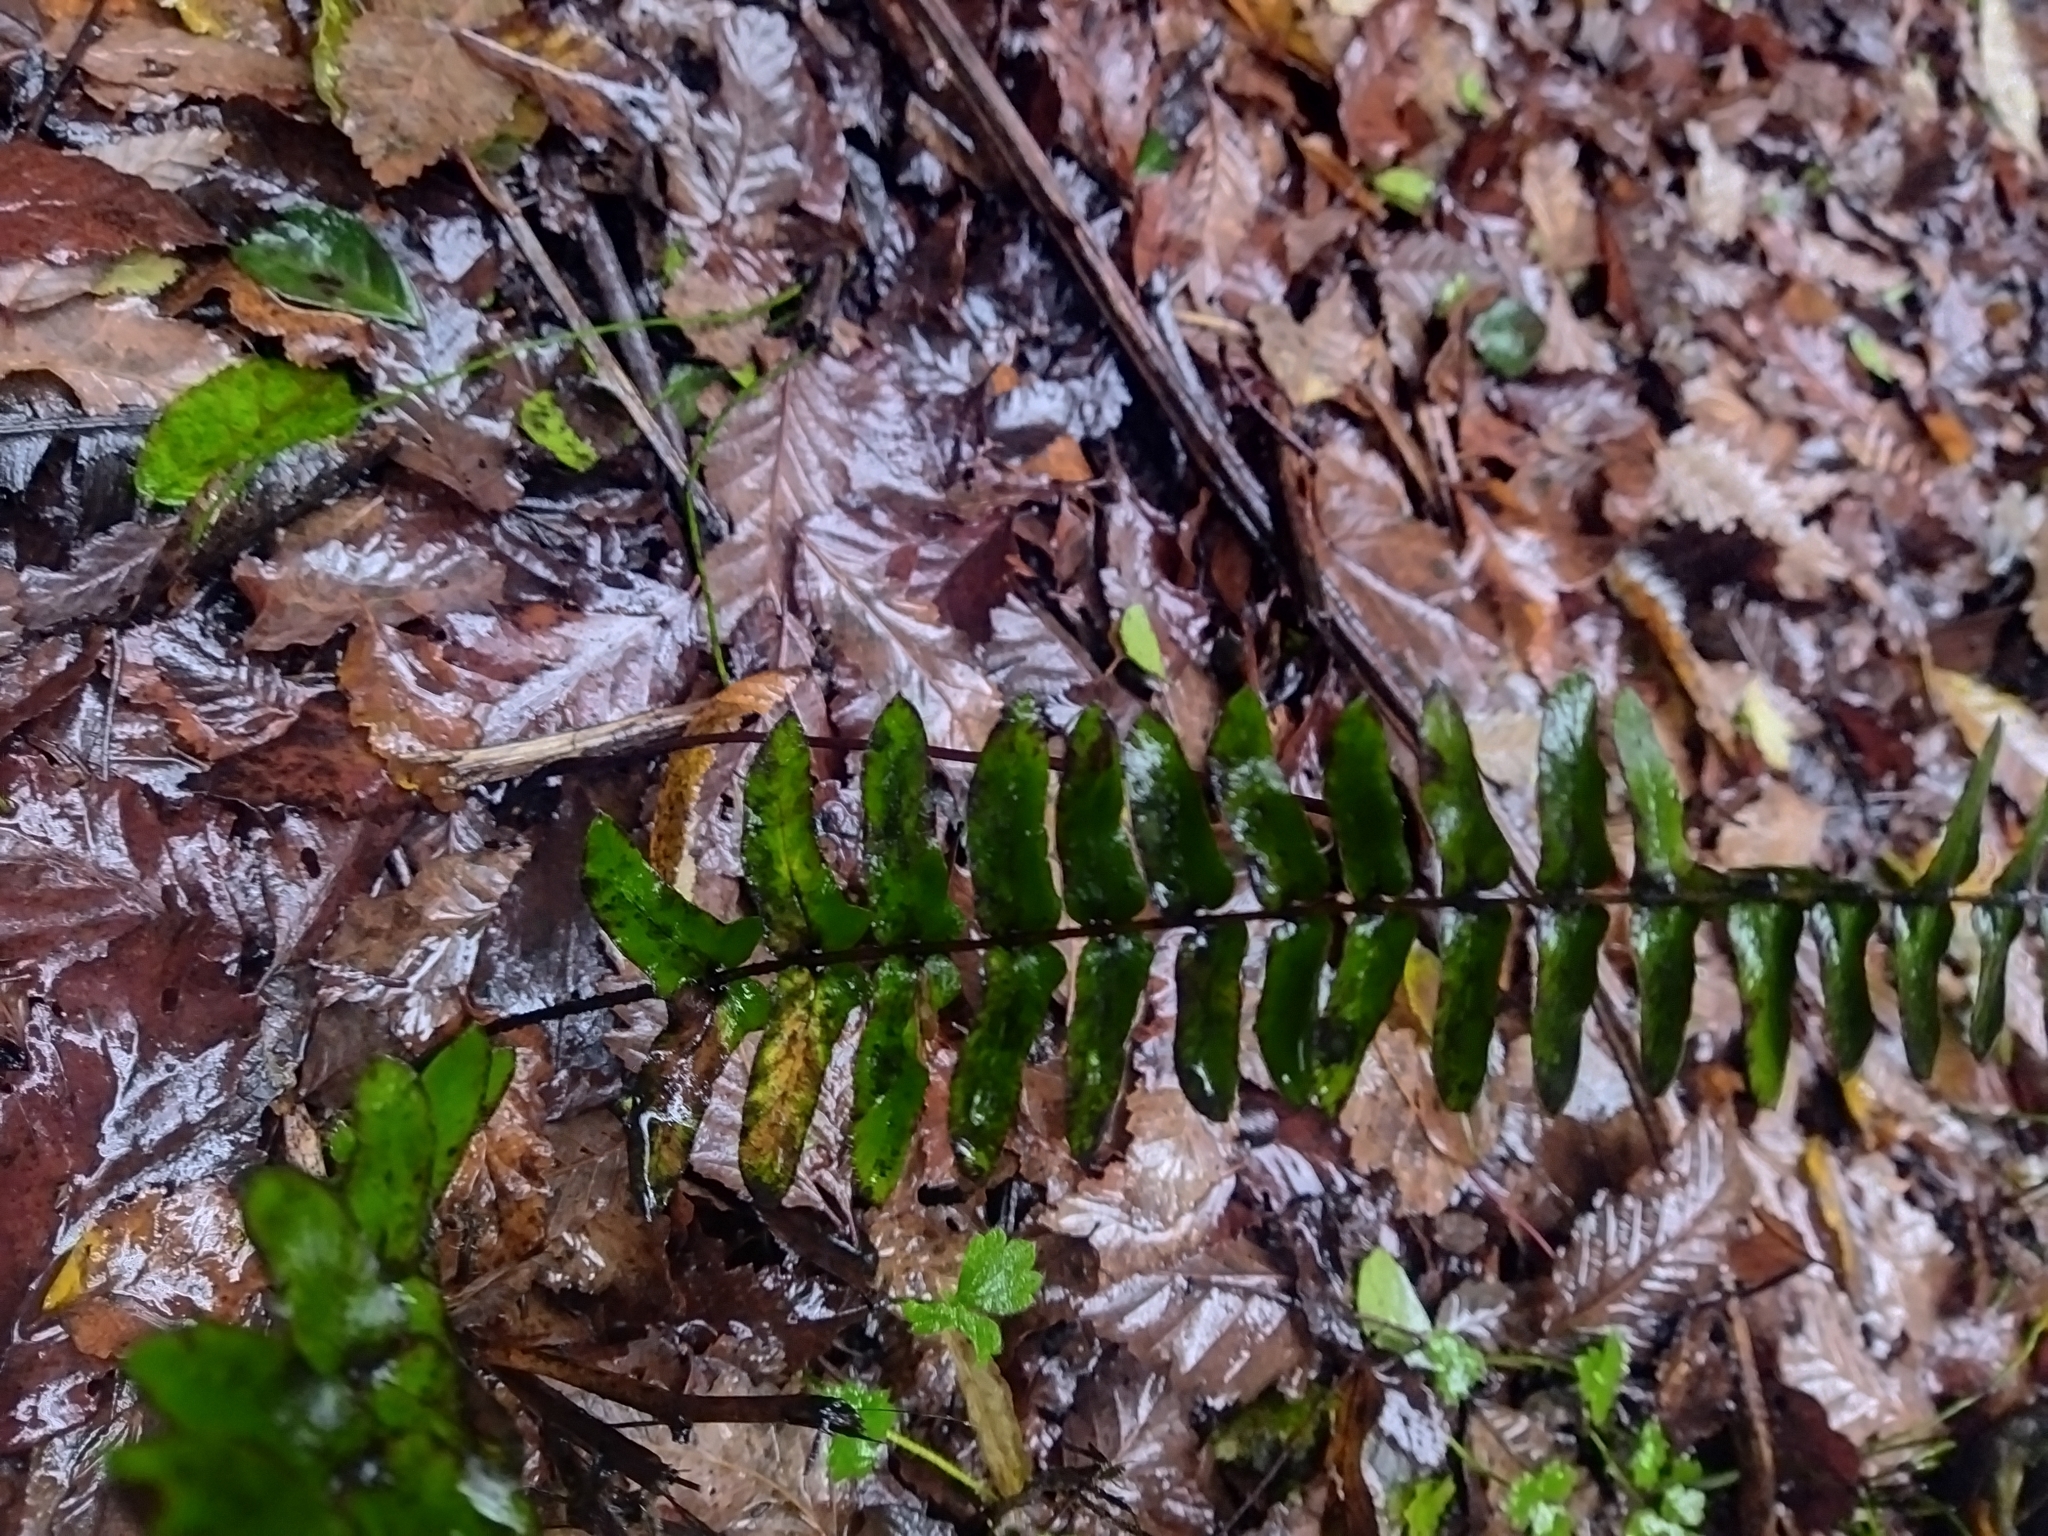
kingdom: Plantae
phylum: Tracheophyta
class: Polypodiopsida
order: Polypodiales
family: Blechnaceae
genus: Blechnum
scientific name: Blechnum hastatum
